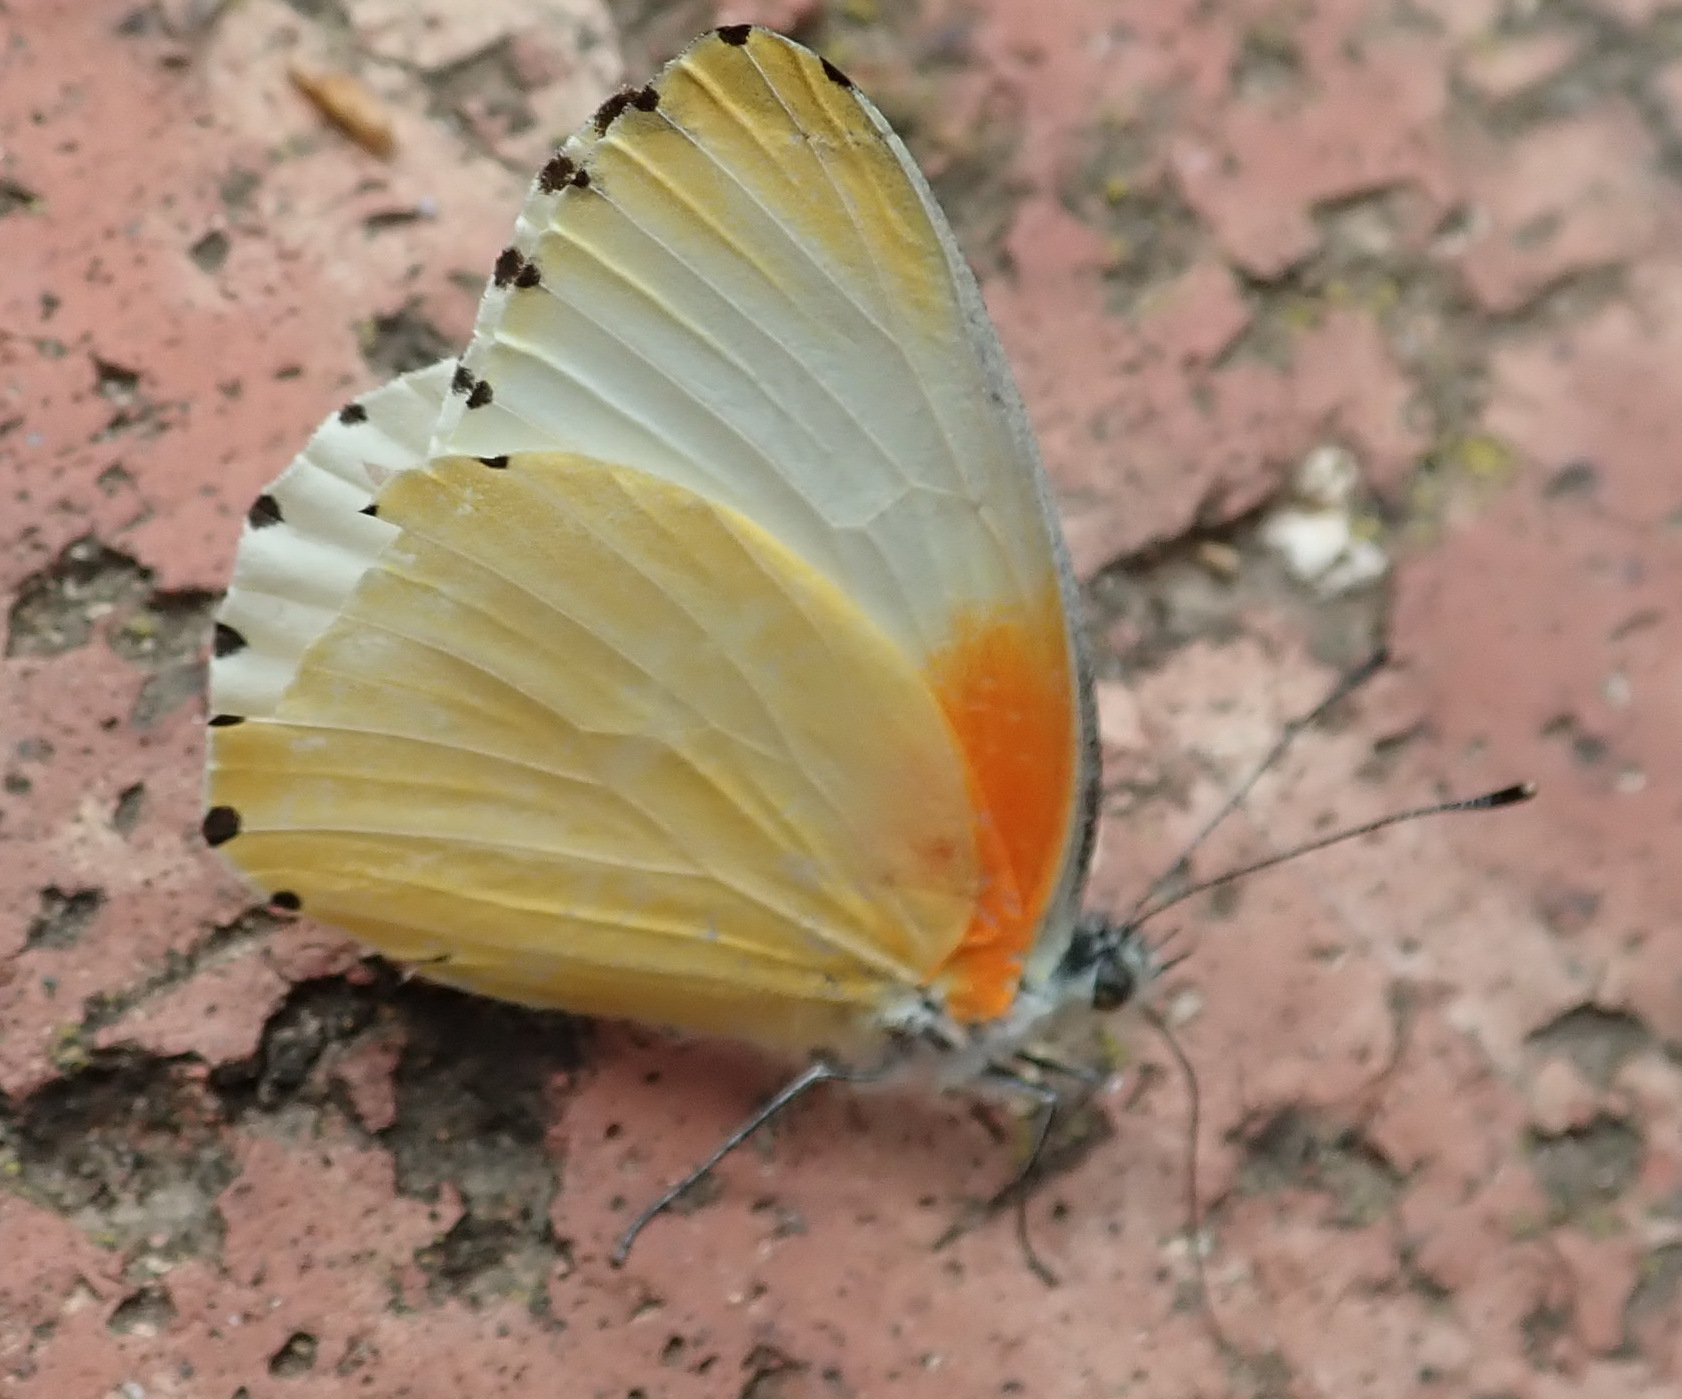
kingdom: Animalia
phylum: Arthropoda
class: Insecta
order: Lepidoptera
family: Pieridae
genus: Mylothris
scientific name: Mylothris agathina
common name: Eastern dotted border
